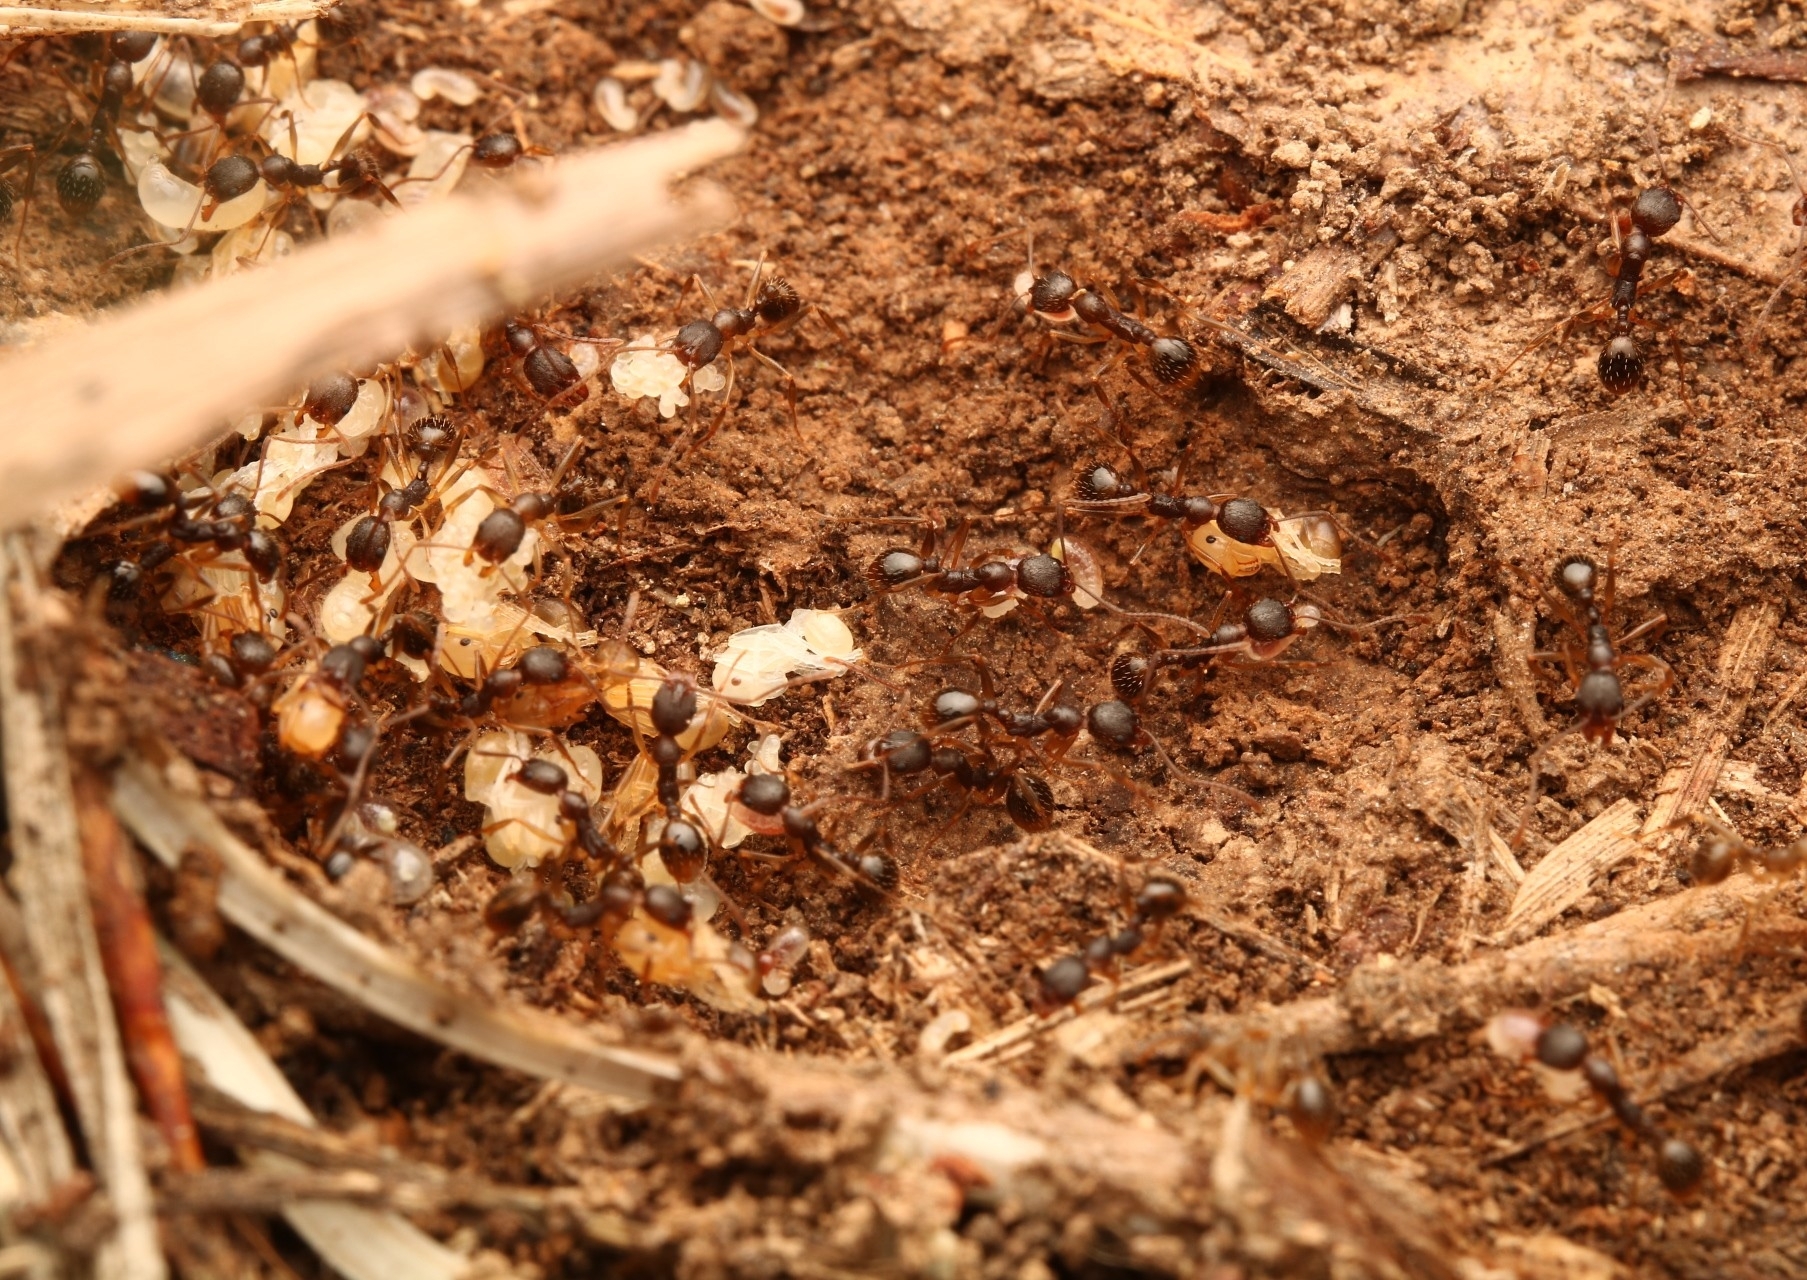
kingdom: Animalia
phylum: Arthropoda
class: Insecta
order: Hymenoptera
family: Formicidae
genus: Aphaenogaster
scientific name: Aphaenogaster rudis
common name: Winnow ant
